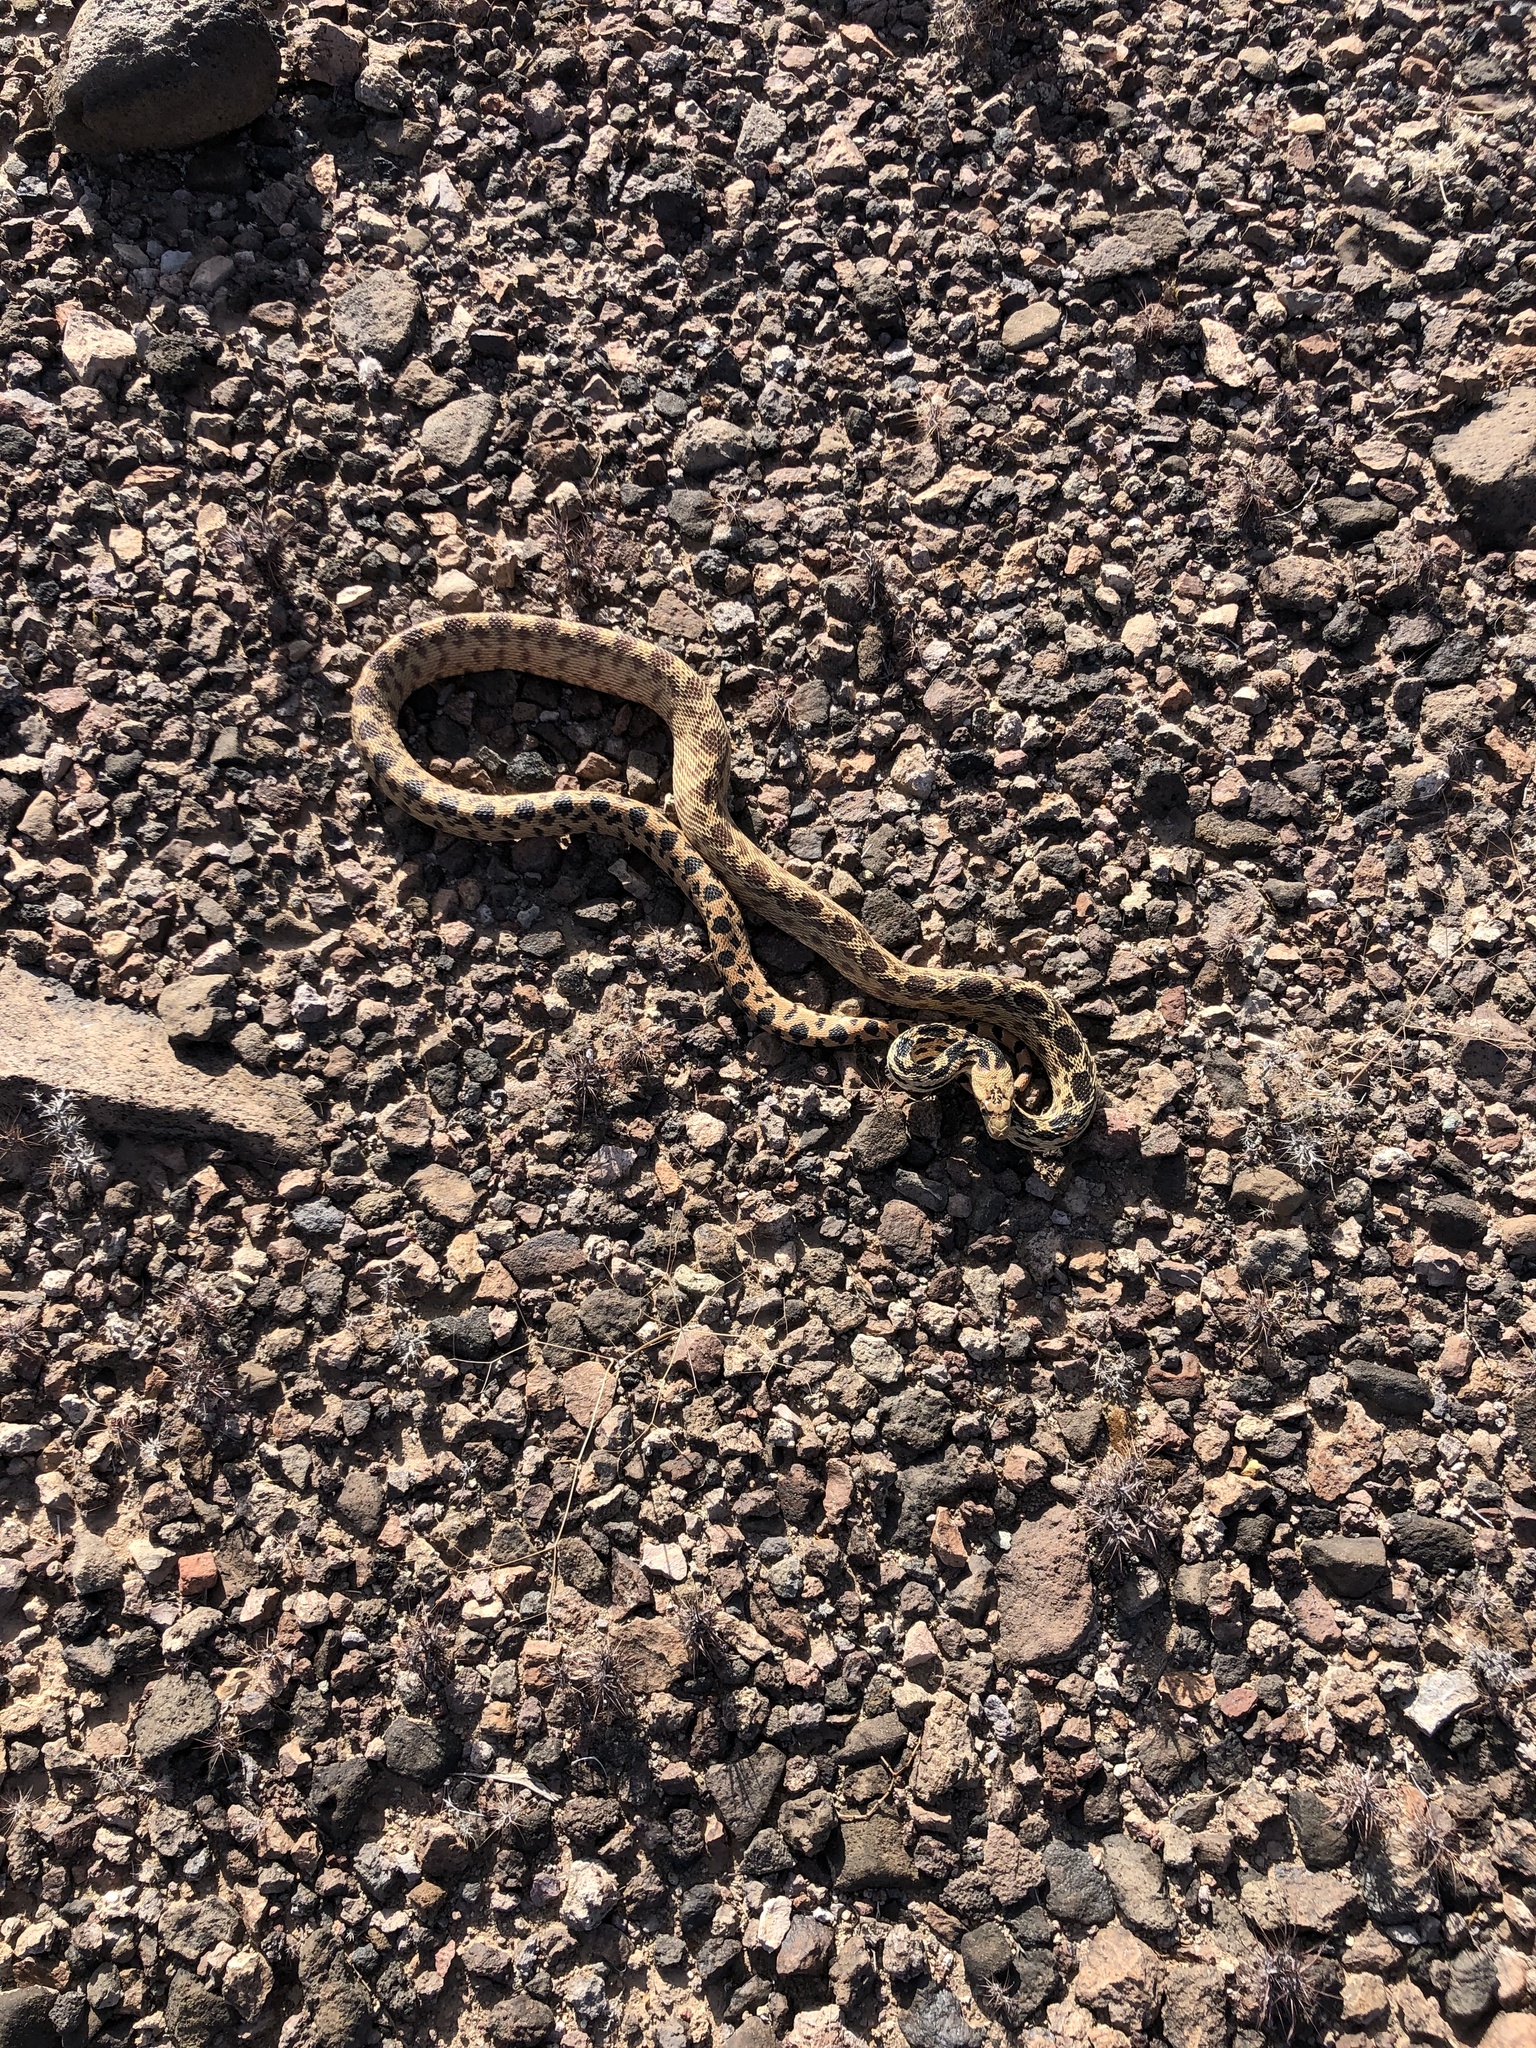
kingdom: Animalia
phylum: Chordata
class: Squamata
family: Colubridae
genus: Pituophis
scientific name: Pituophis catenifer
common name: Gopher snake
